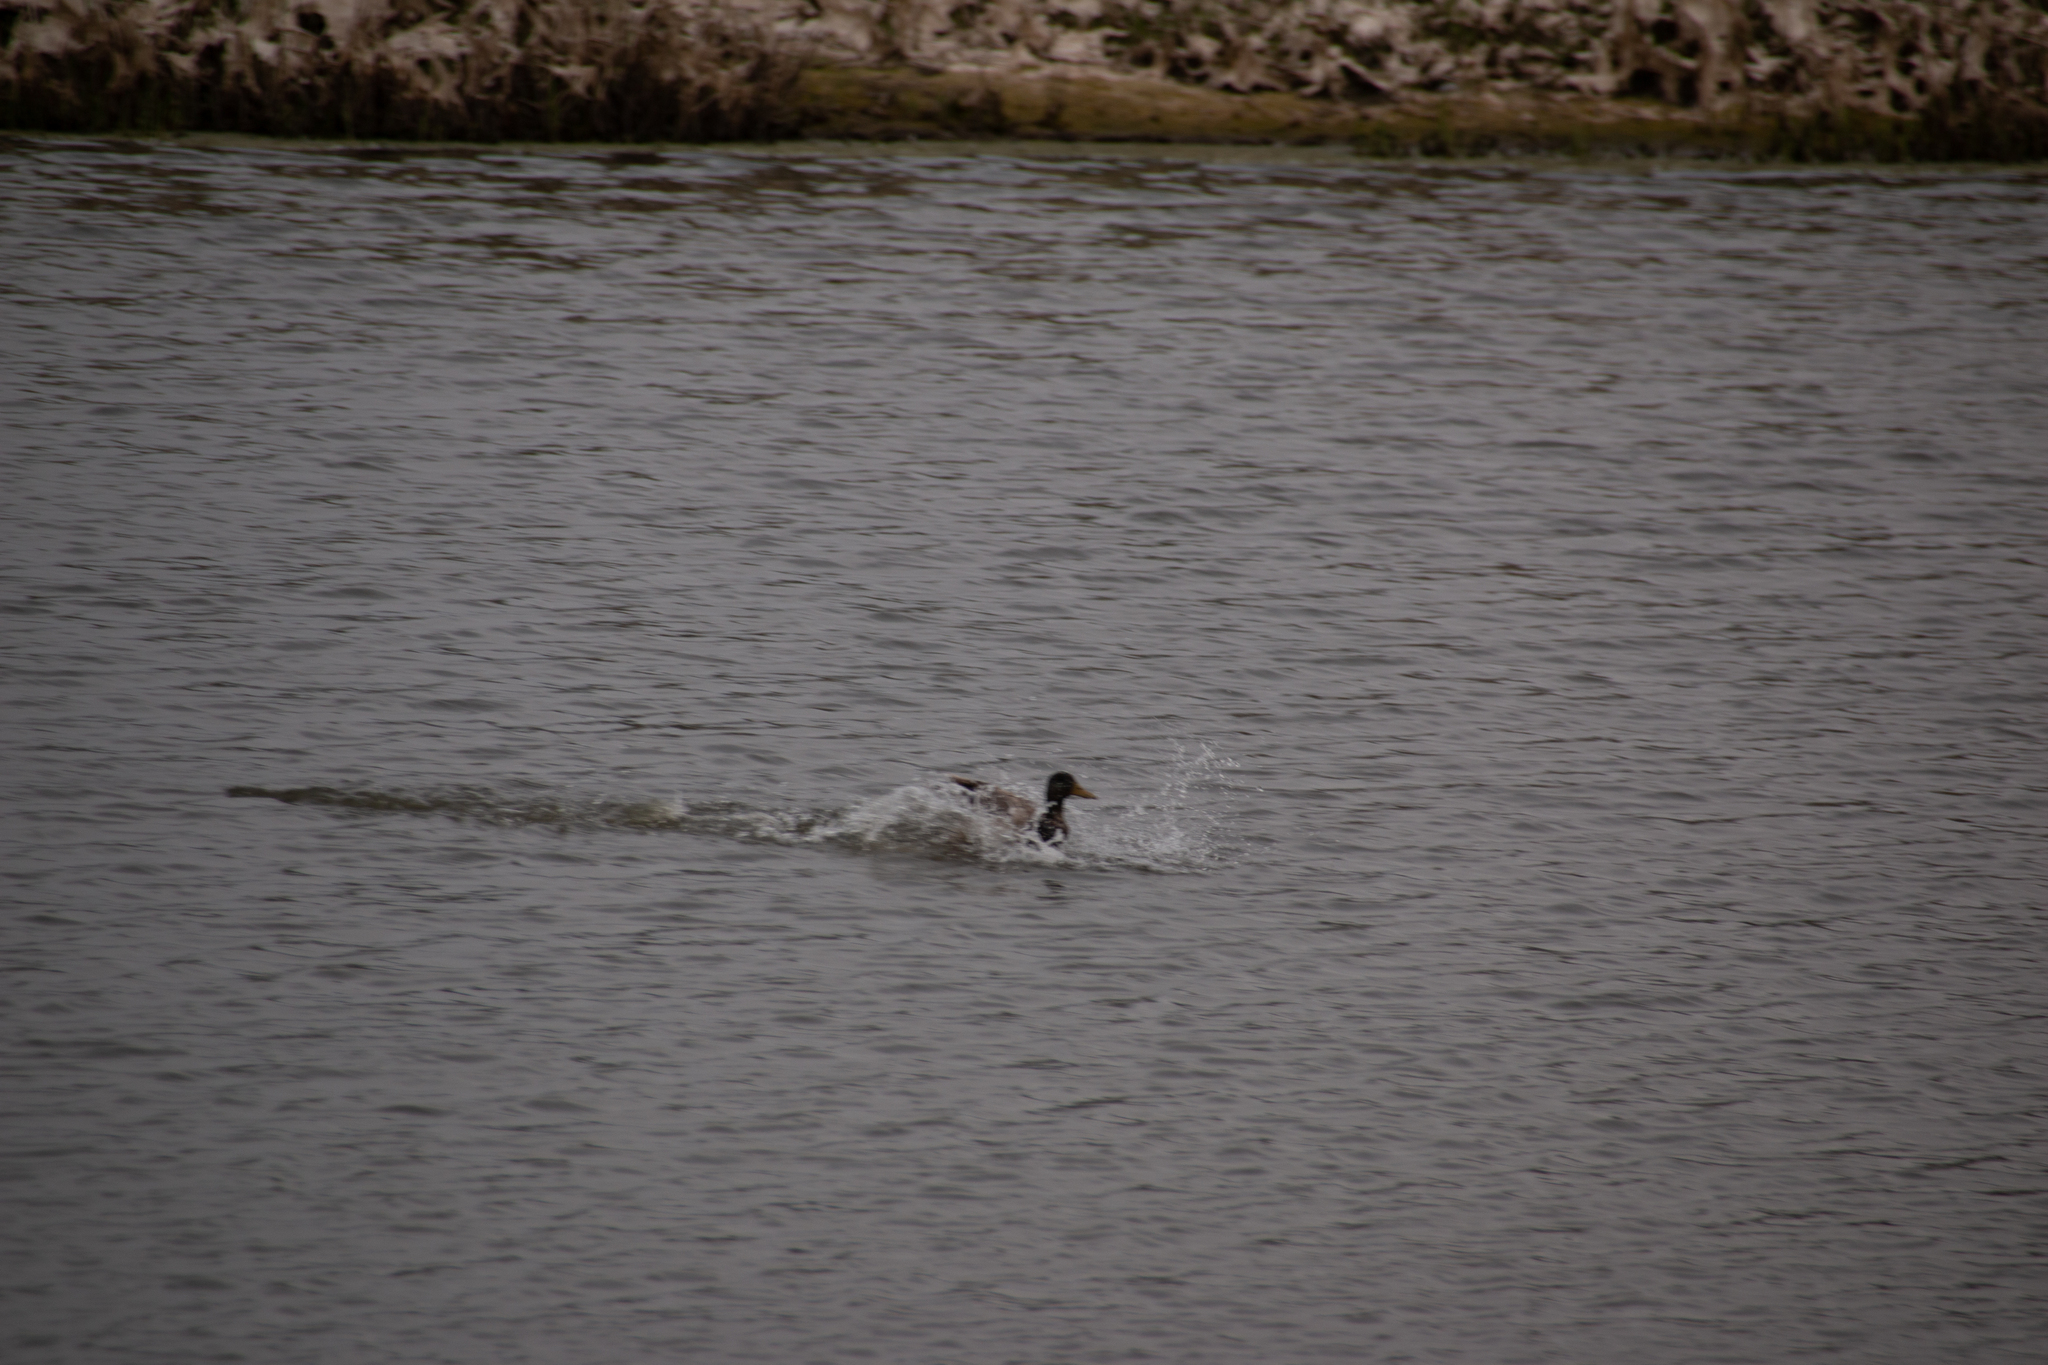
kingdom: Animalia
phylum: Chordata
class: Aves
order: Anseriformes
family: Anatidae
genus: Anas
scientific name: Anas platyrhynchos
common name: Mallard
